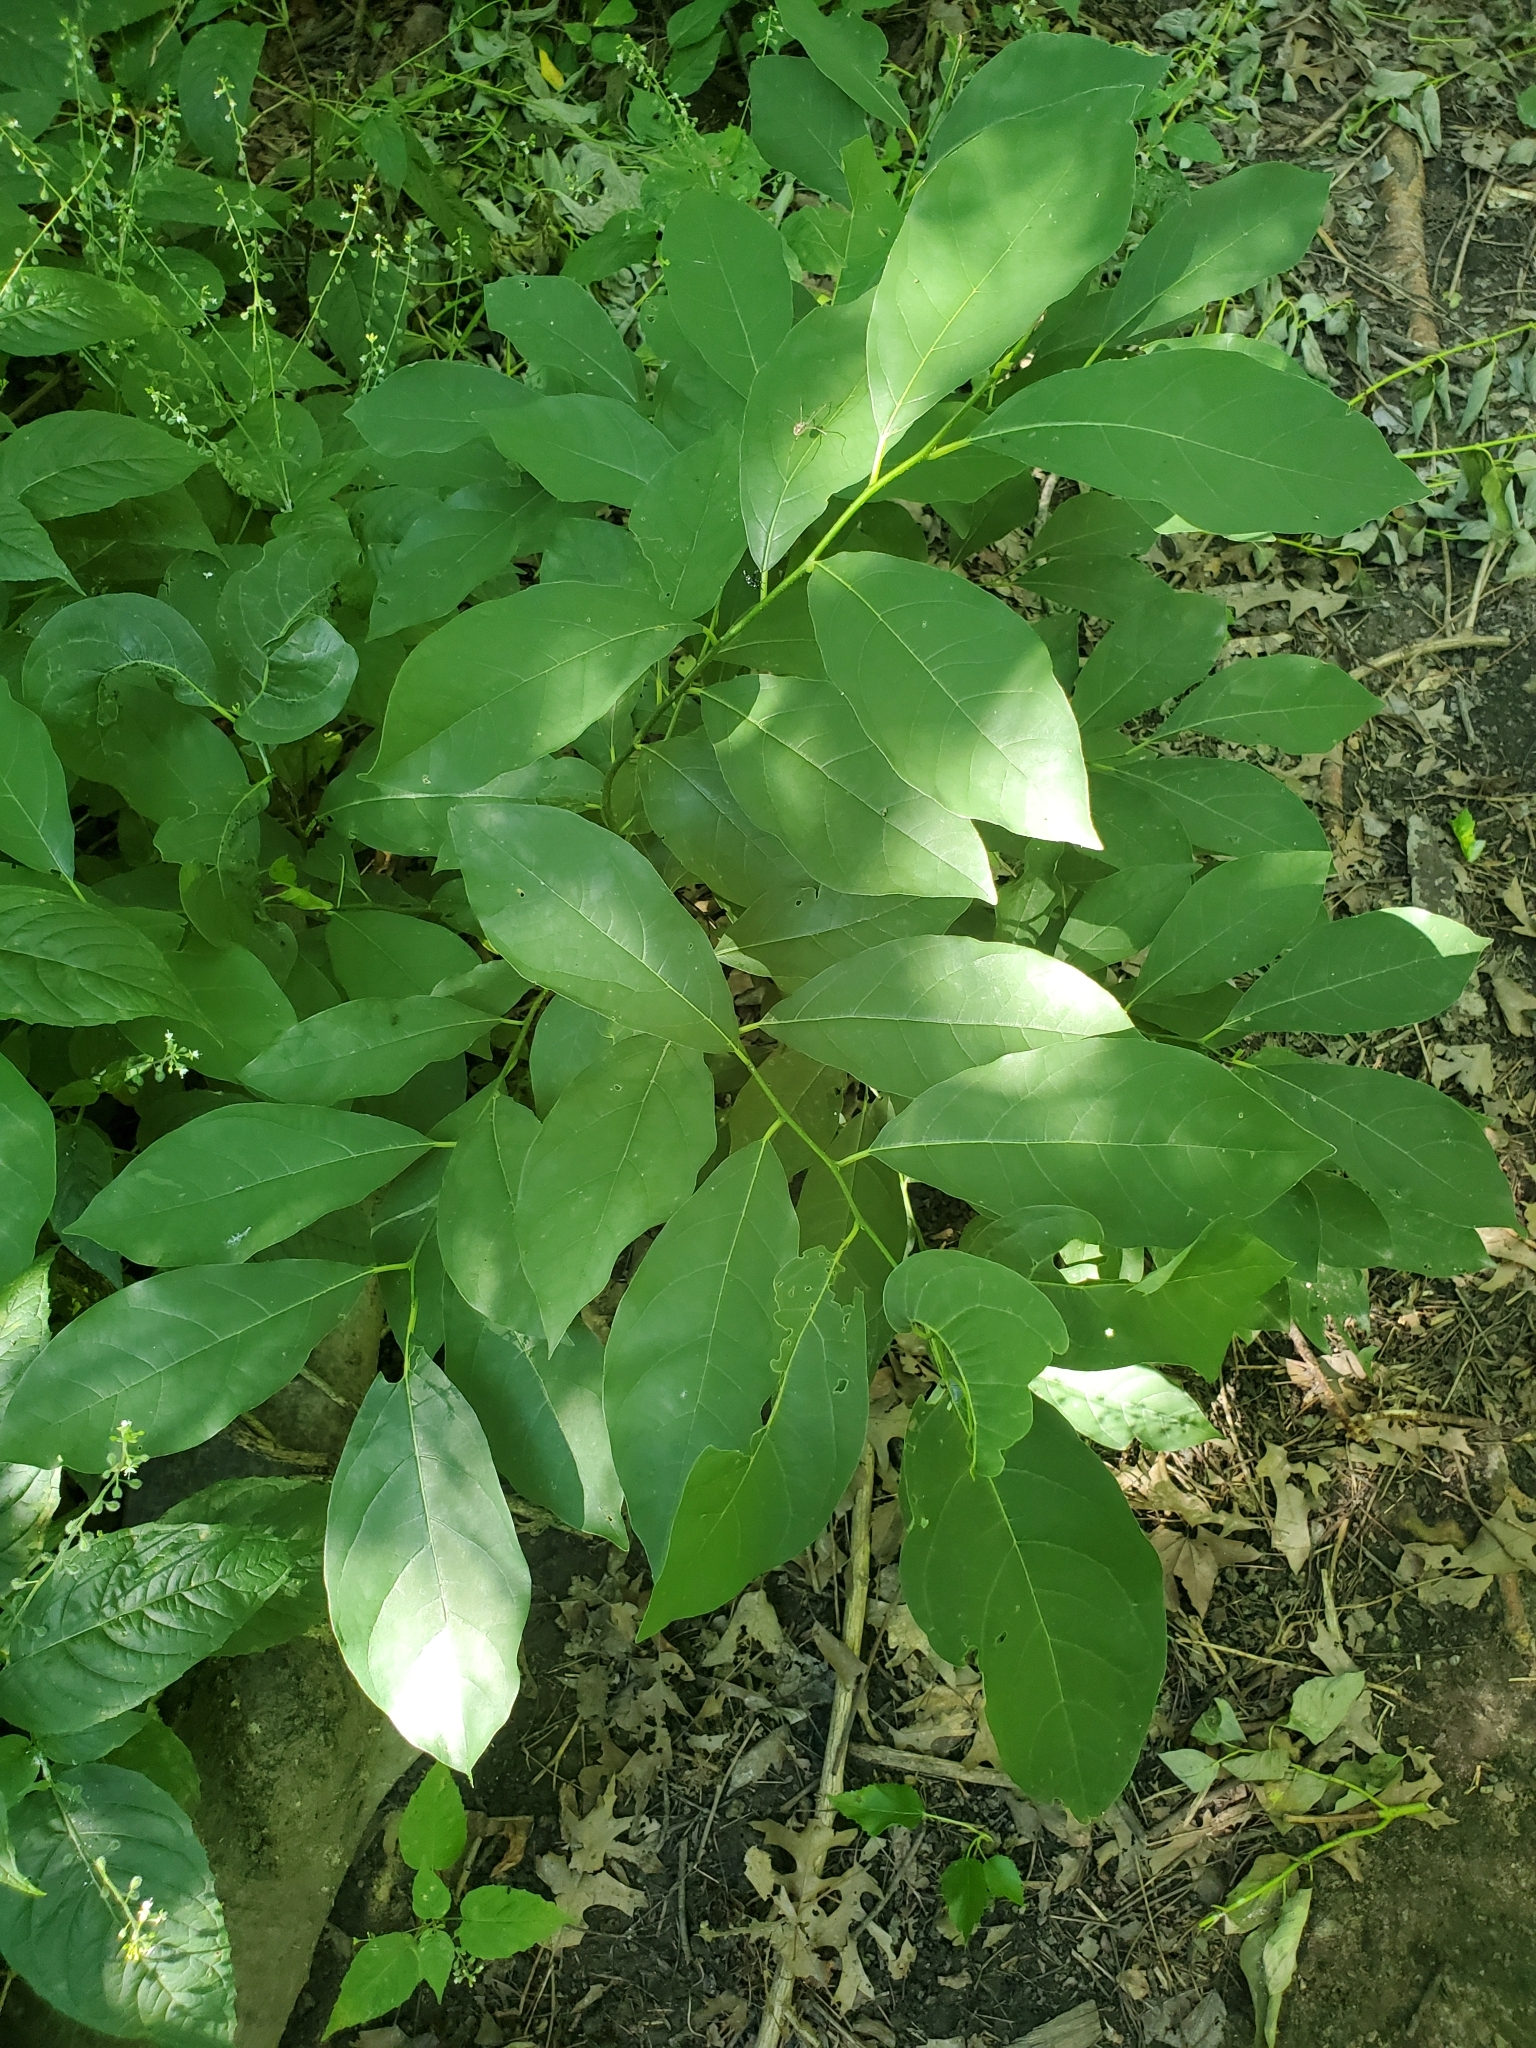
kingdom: Plantae
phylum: Tracheophyta
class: Magnoliopsida
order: Laurales
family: Lauraceae
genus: Lindera
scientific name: Lindera benzoin
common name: Spicebush
